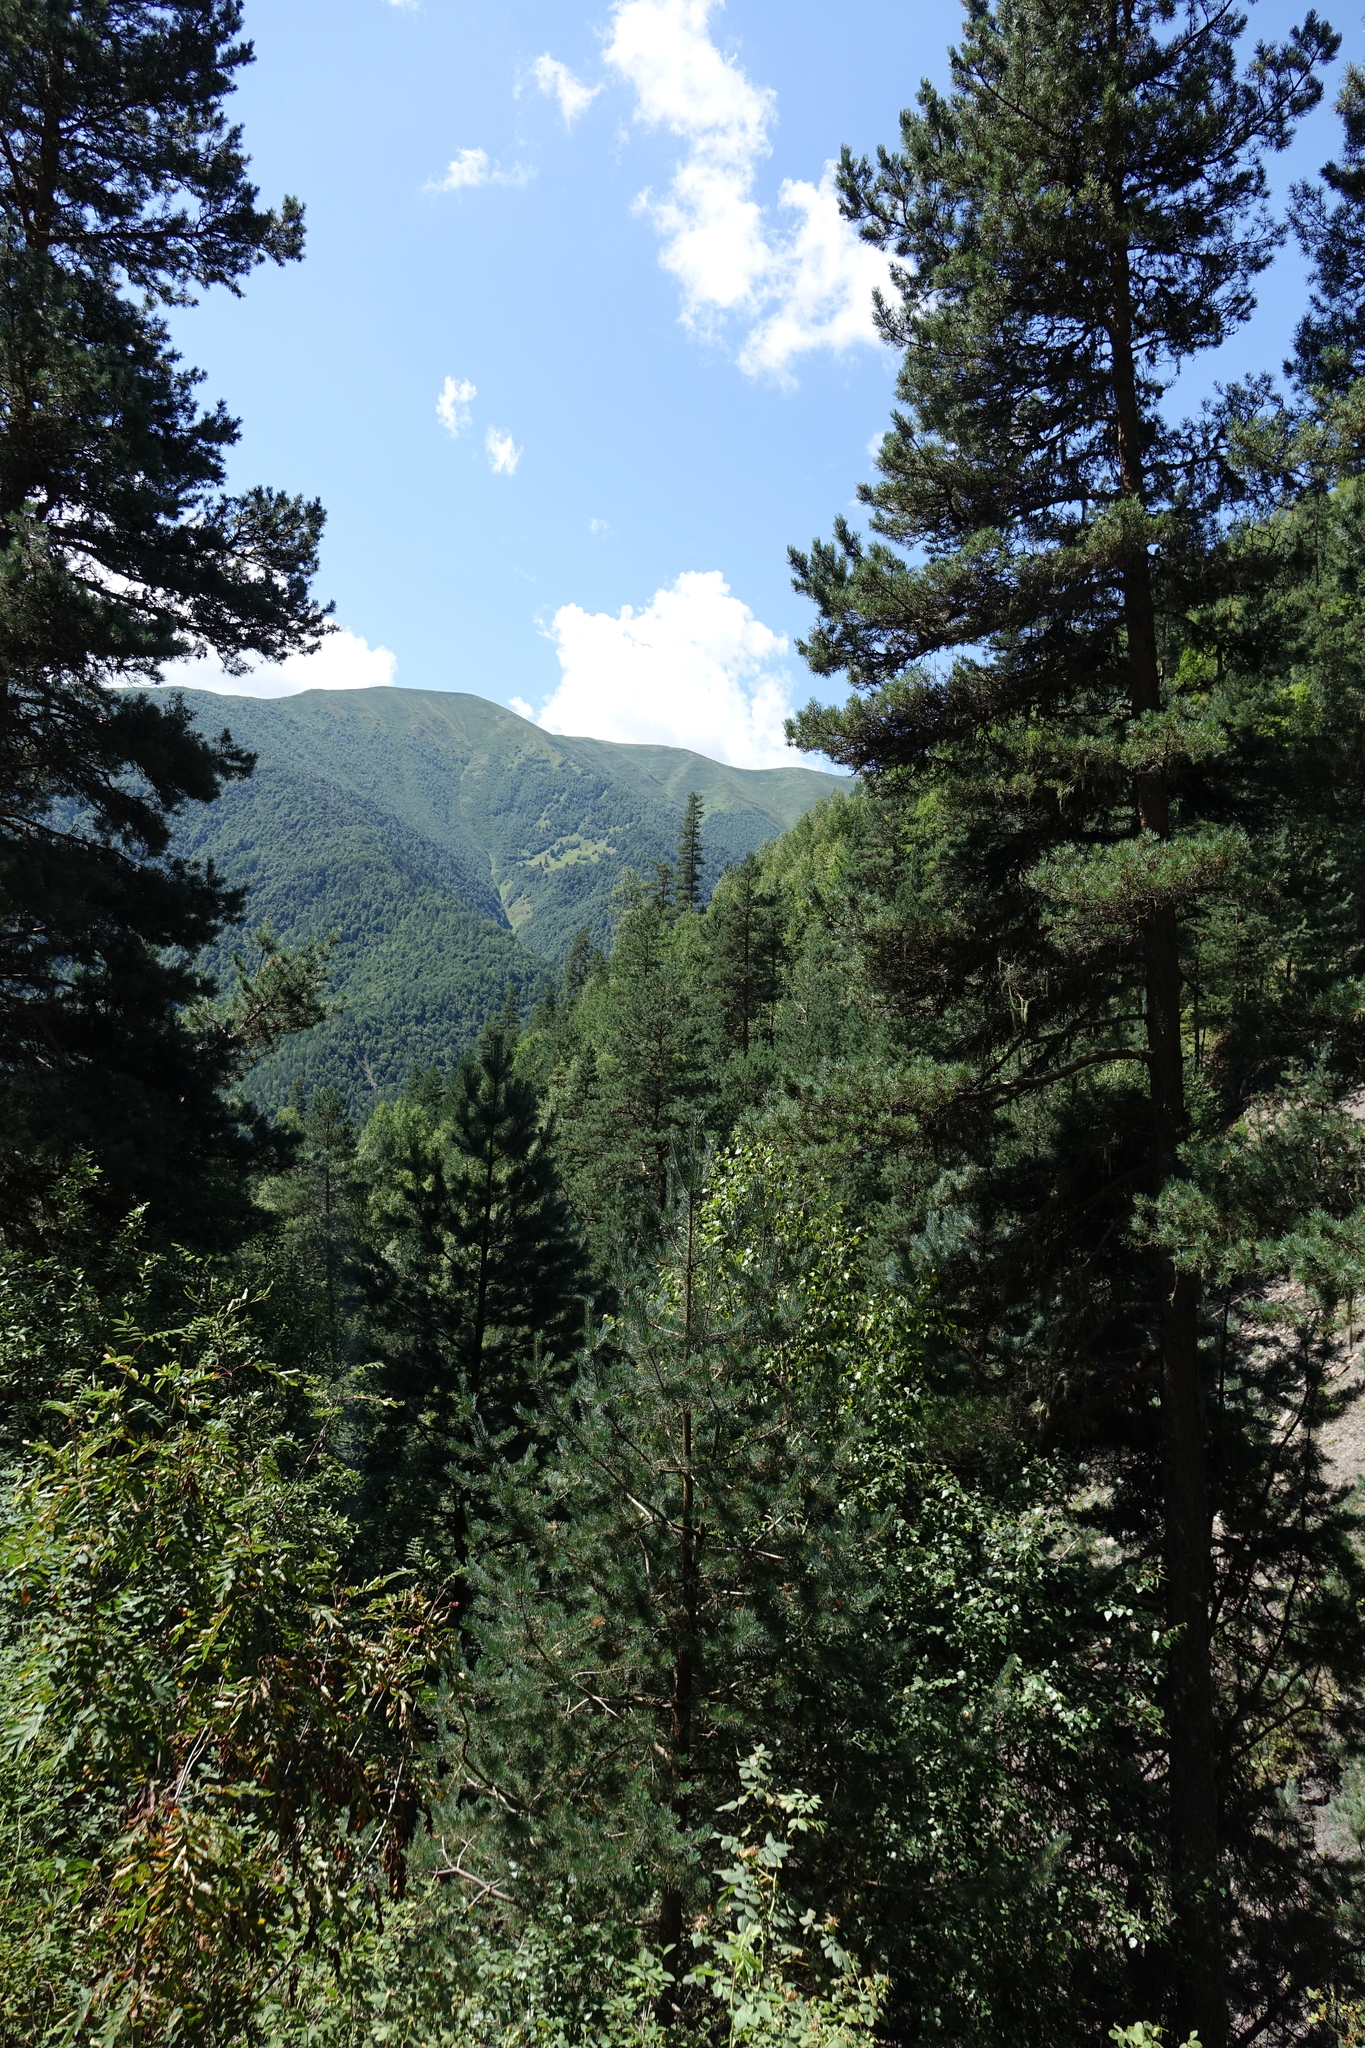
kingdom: Plantae
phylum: Tracheophyta
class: Pinopsida
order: Pinales
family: Pinaceae
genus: Pinus
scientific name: Pinus sylvestris
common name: Scots pine
